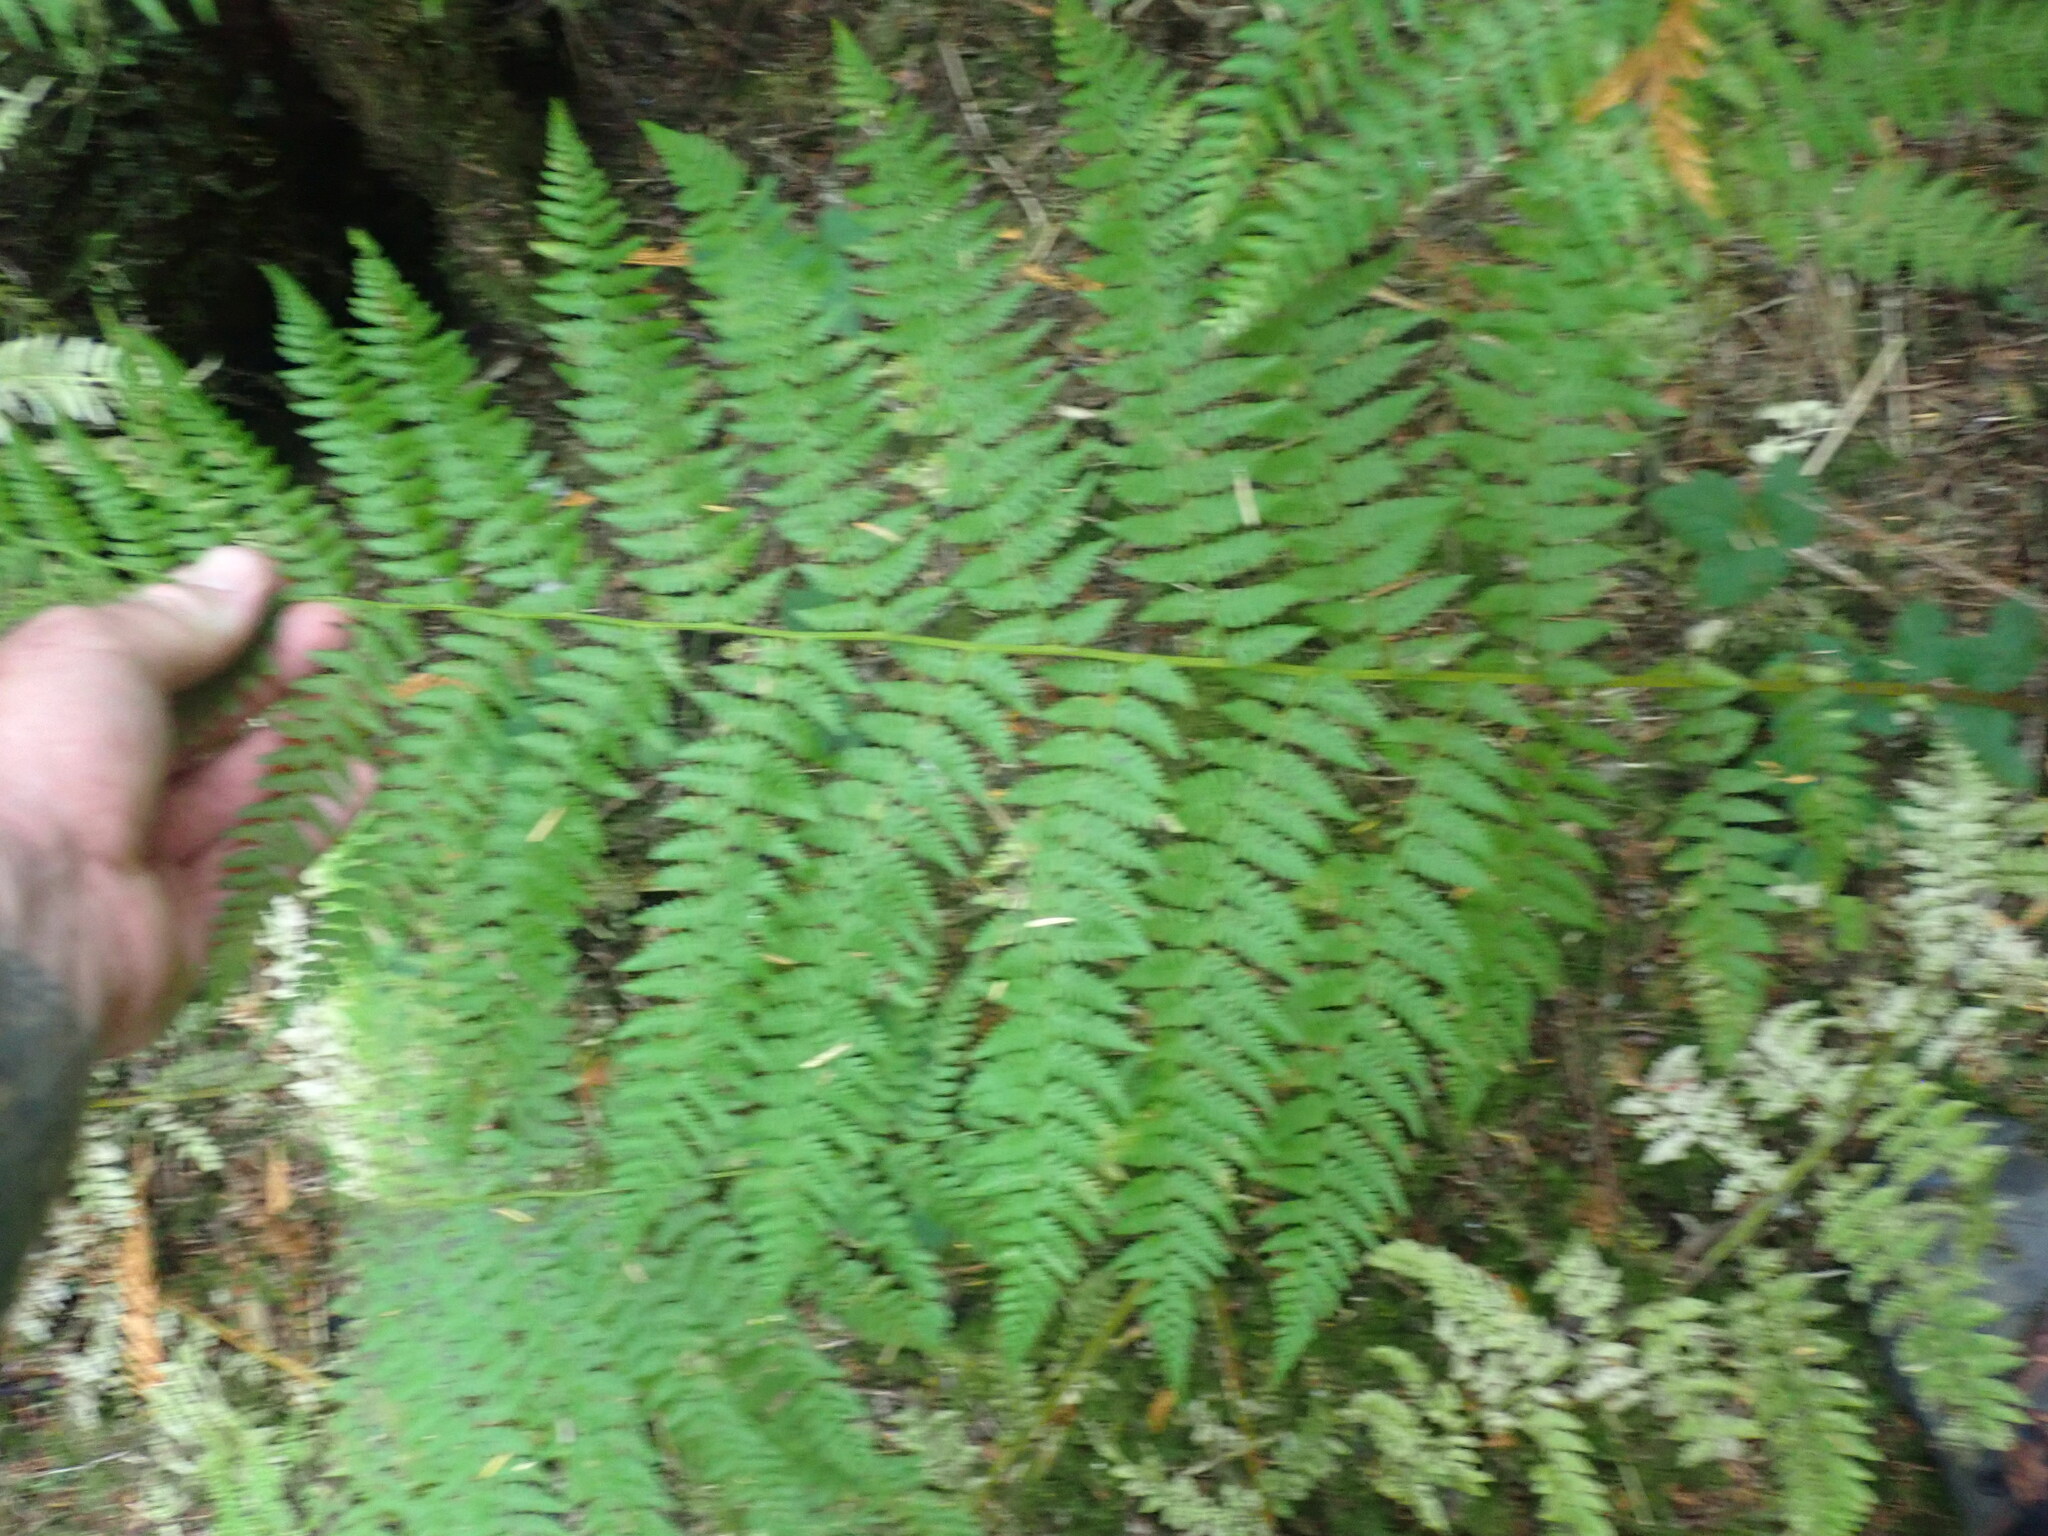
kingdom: Plantae
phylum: Tracheophyta
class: Polypodiopsida
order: Polypodiales
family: Athyriaceae
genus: Athyrium
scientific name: Athyrium filix-femina
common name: Lady fern
